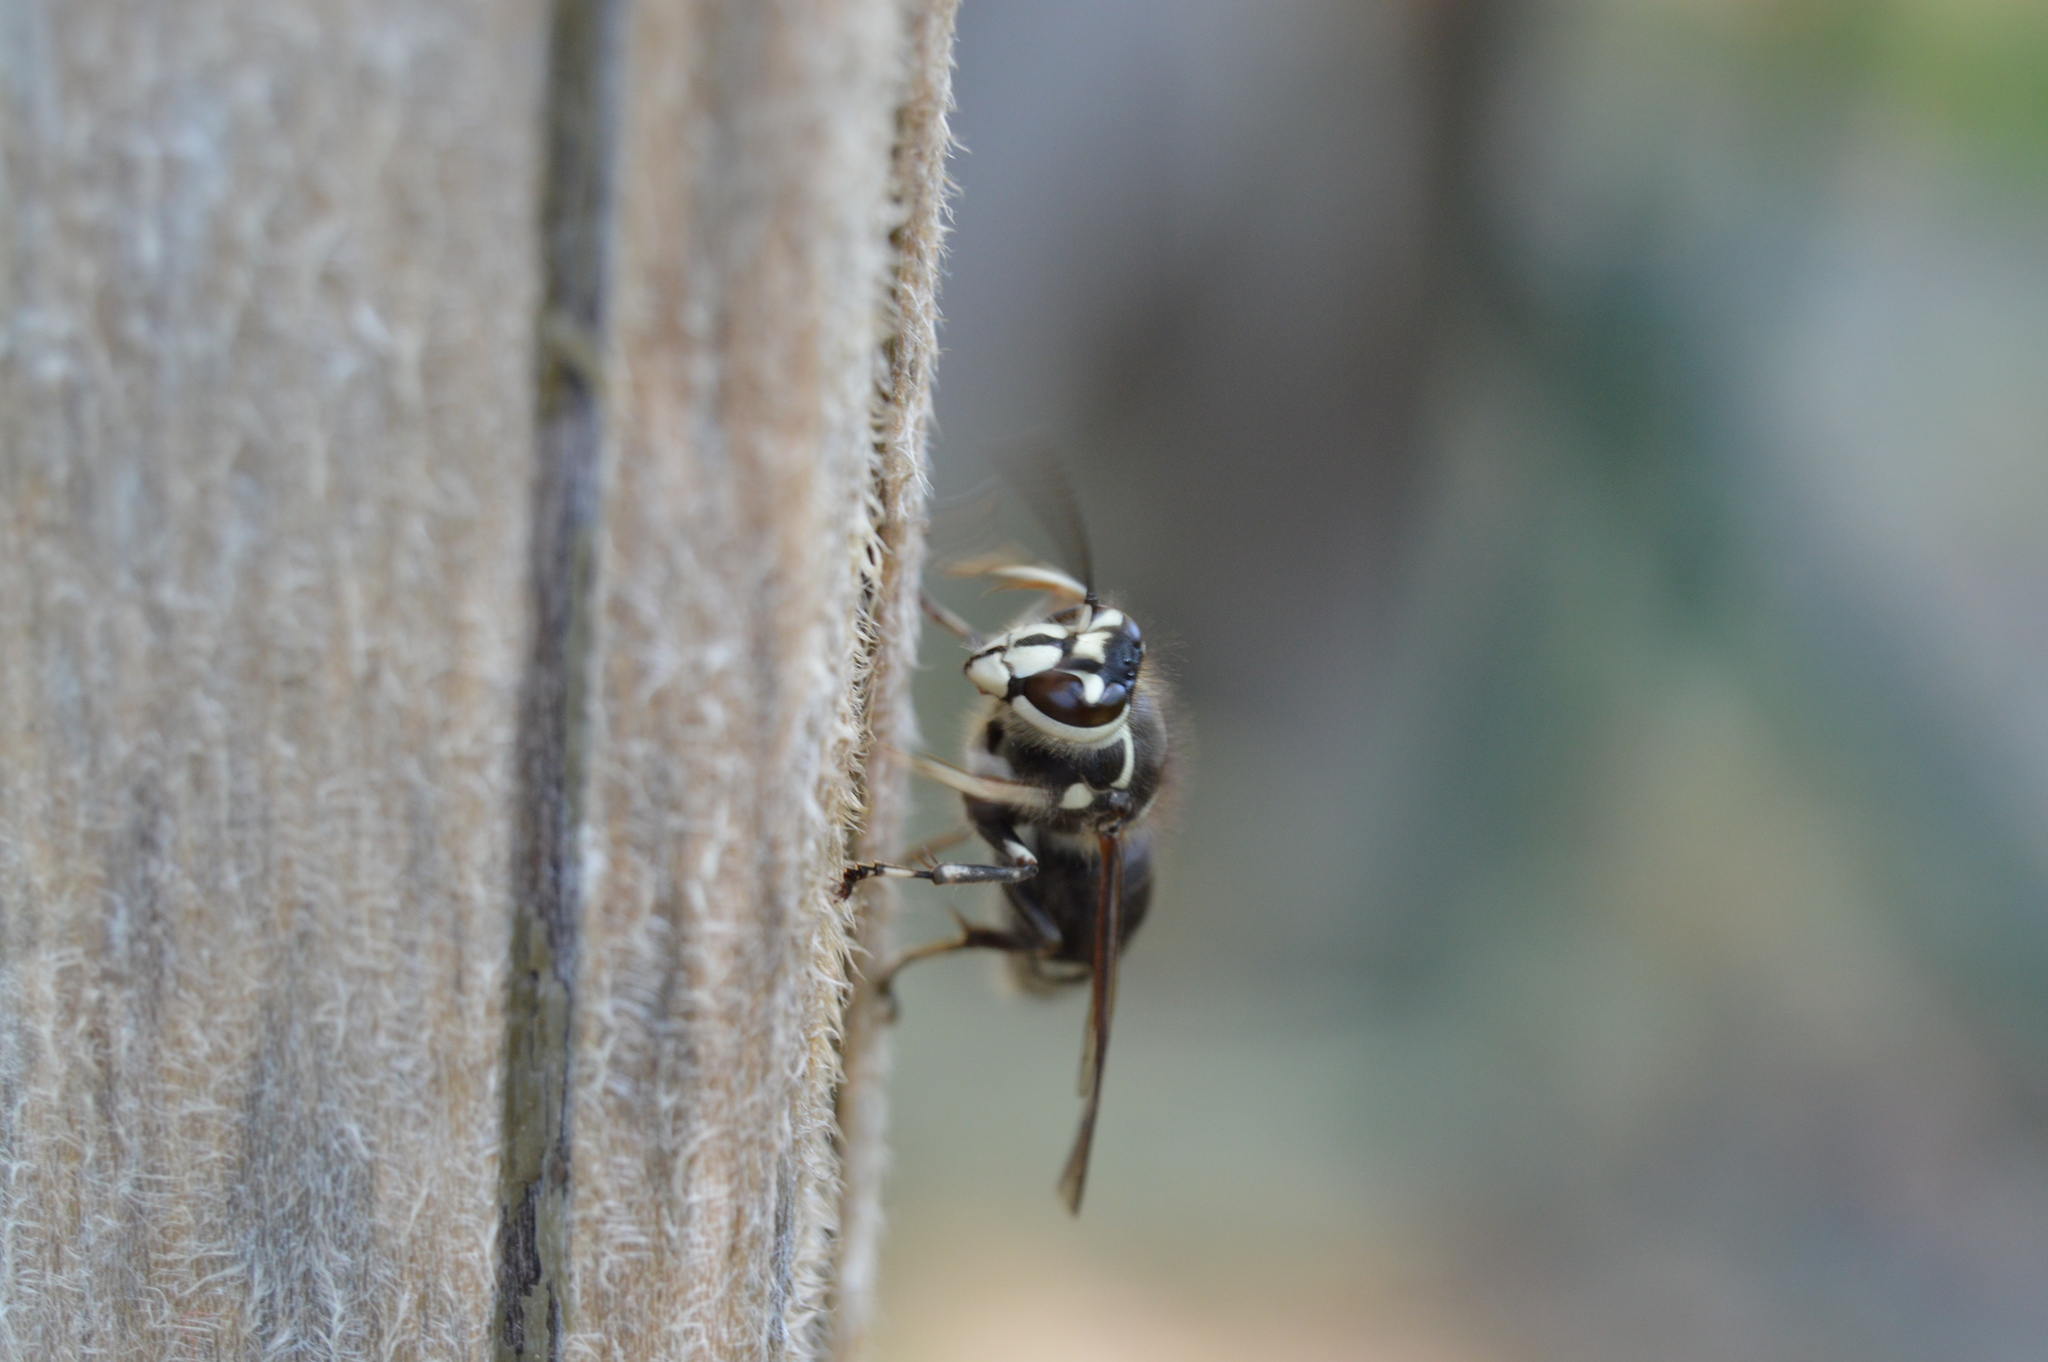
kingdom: Animalia
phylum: Arthropoda
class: Insecta
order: Hymenoptera
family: Vespidae
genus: Dolichovespula
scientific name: Dolichovespula maculata
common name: Bald-faced hornet
